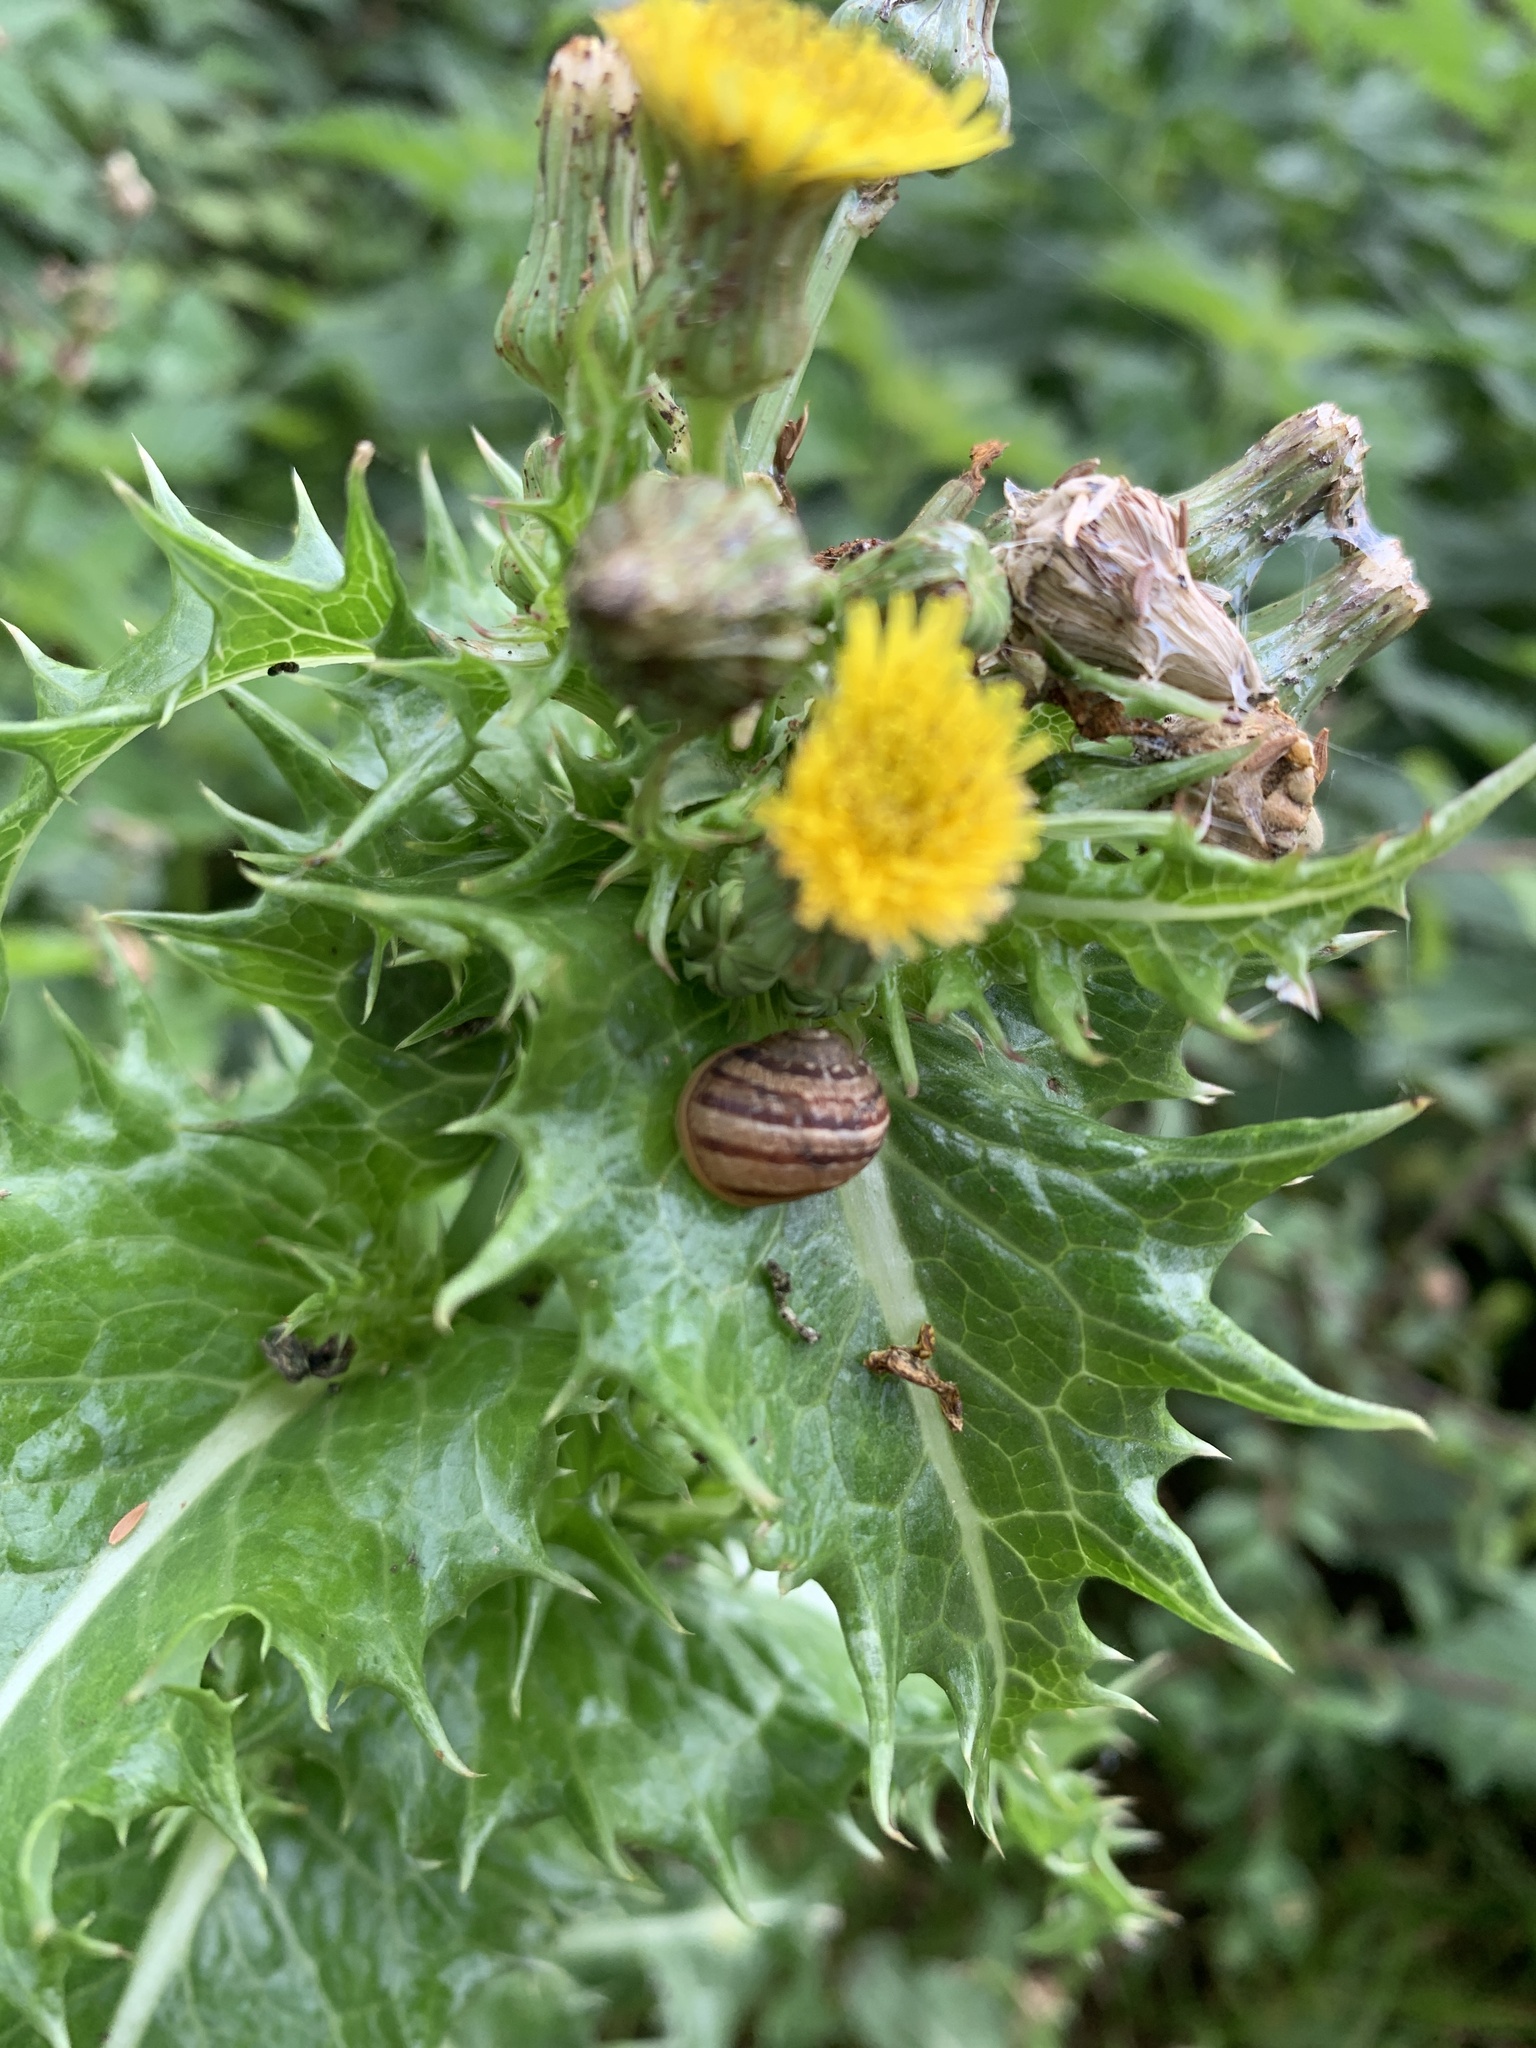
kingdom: Animalia
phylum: Mollusca
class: Gastropoda
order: Stylommatophora
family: Helicidae
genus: Cornu
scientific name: Cornu aspersum
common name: Brown garden snail
